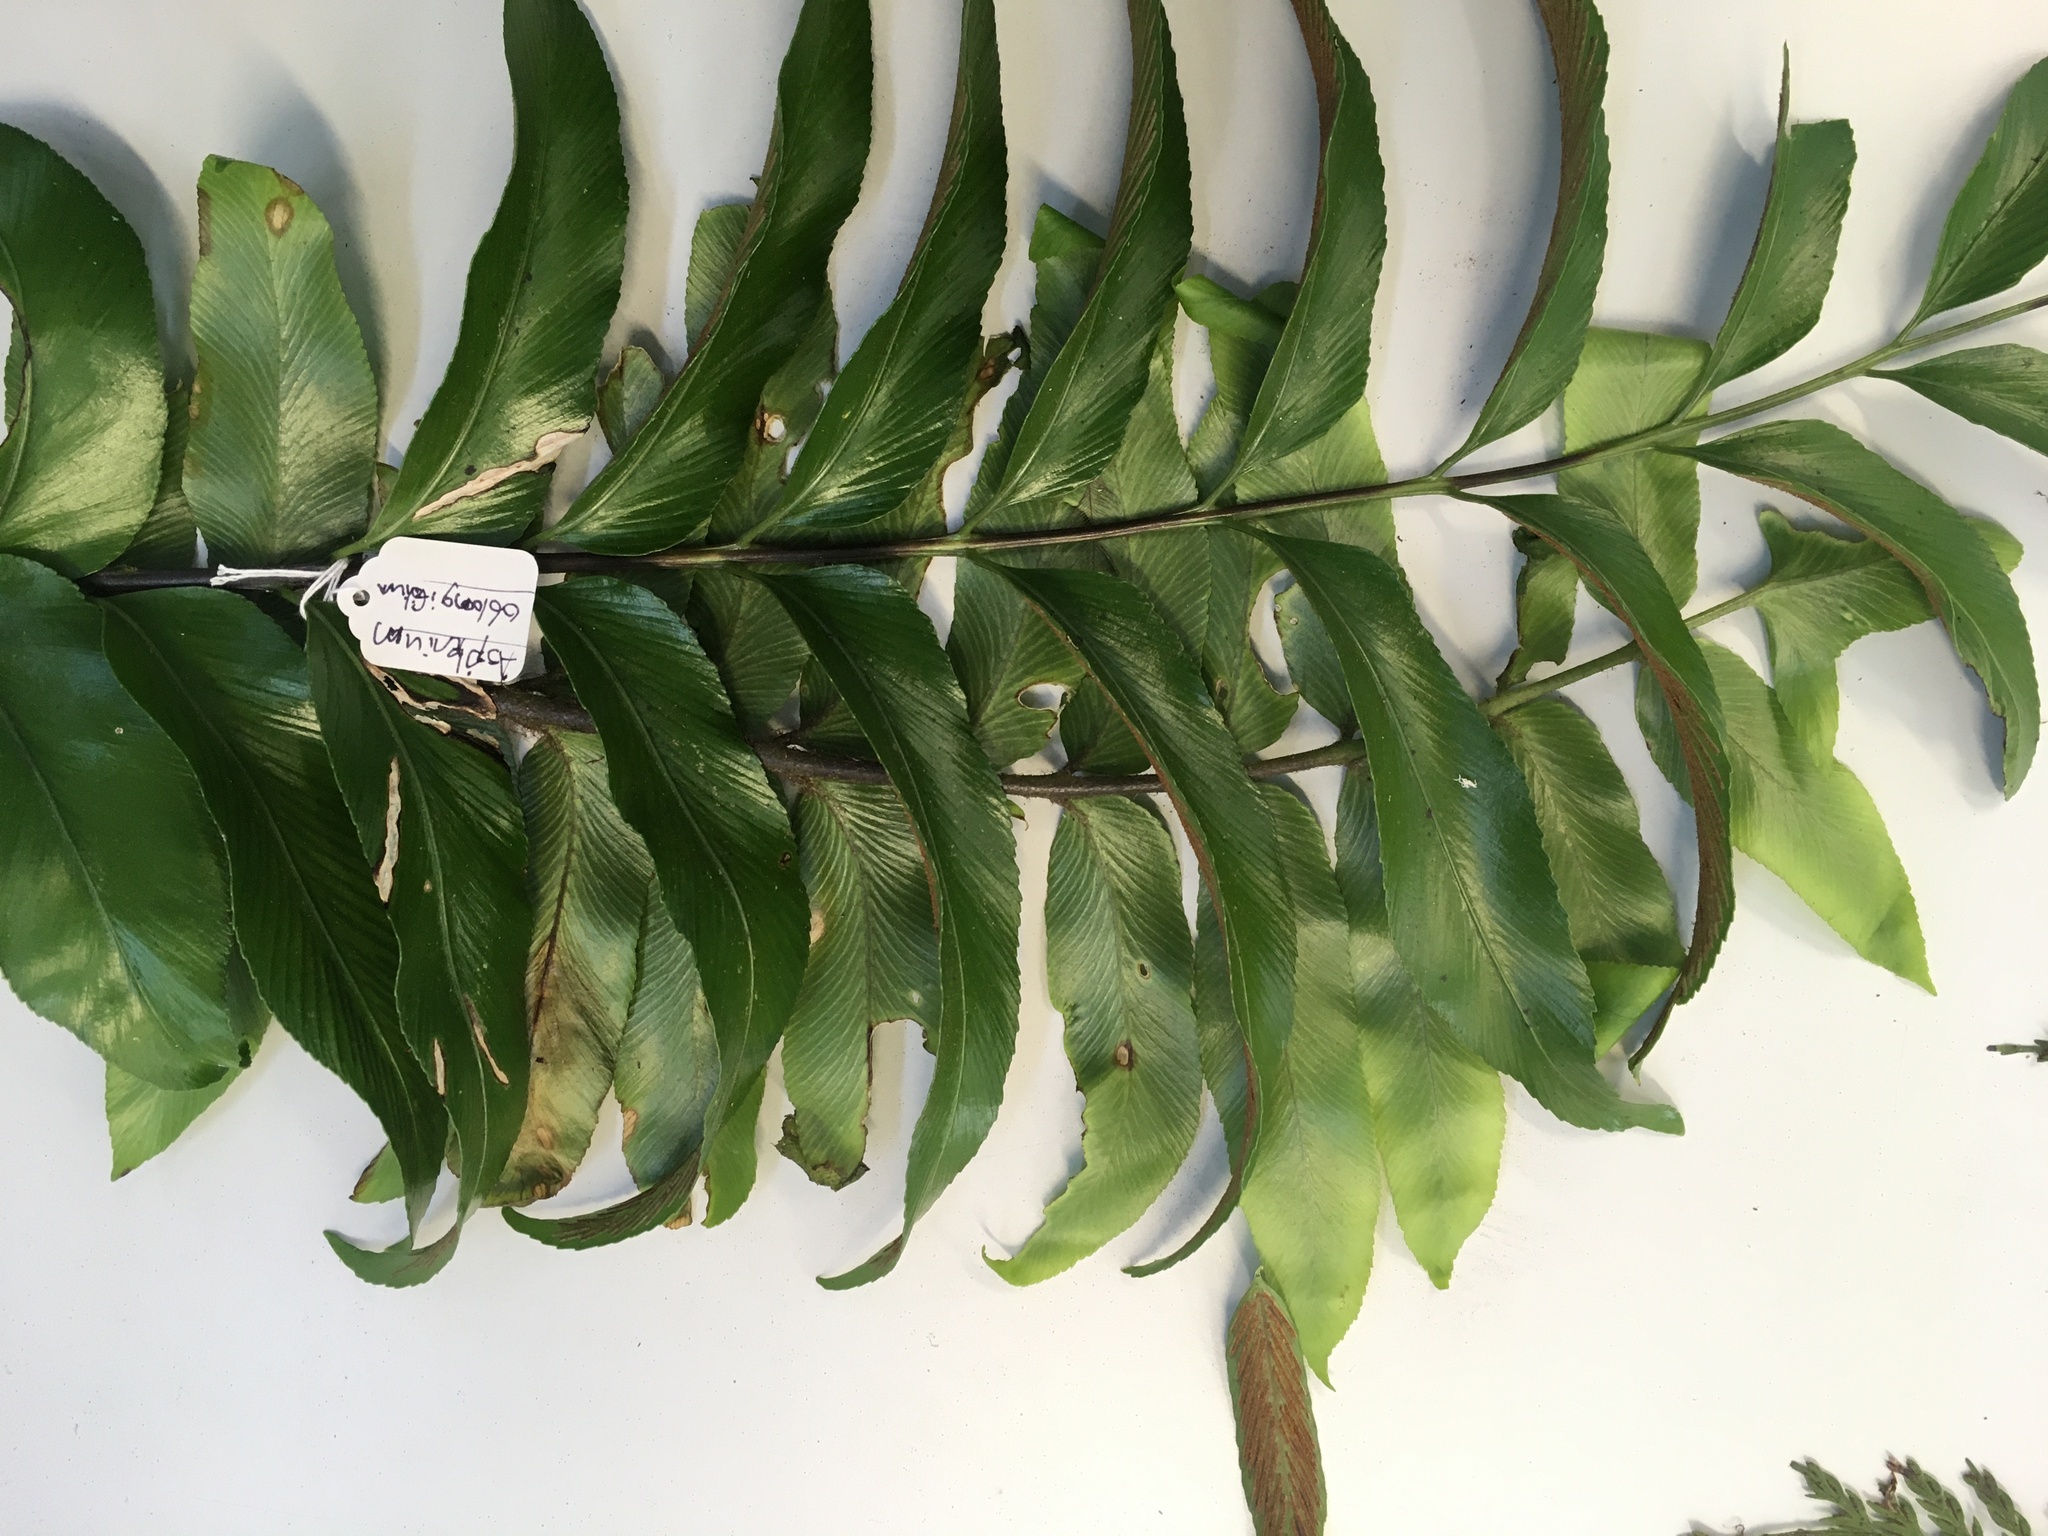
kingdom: Plantae
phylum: Tracheophyta
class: Polypodiopsida
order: Polypodiales
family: Aspleniaceae
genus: Asplenium
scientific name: Asplenium oblongifolium
